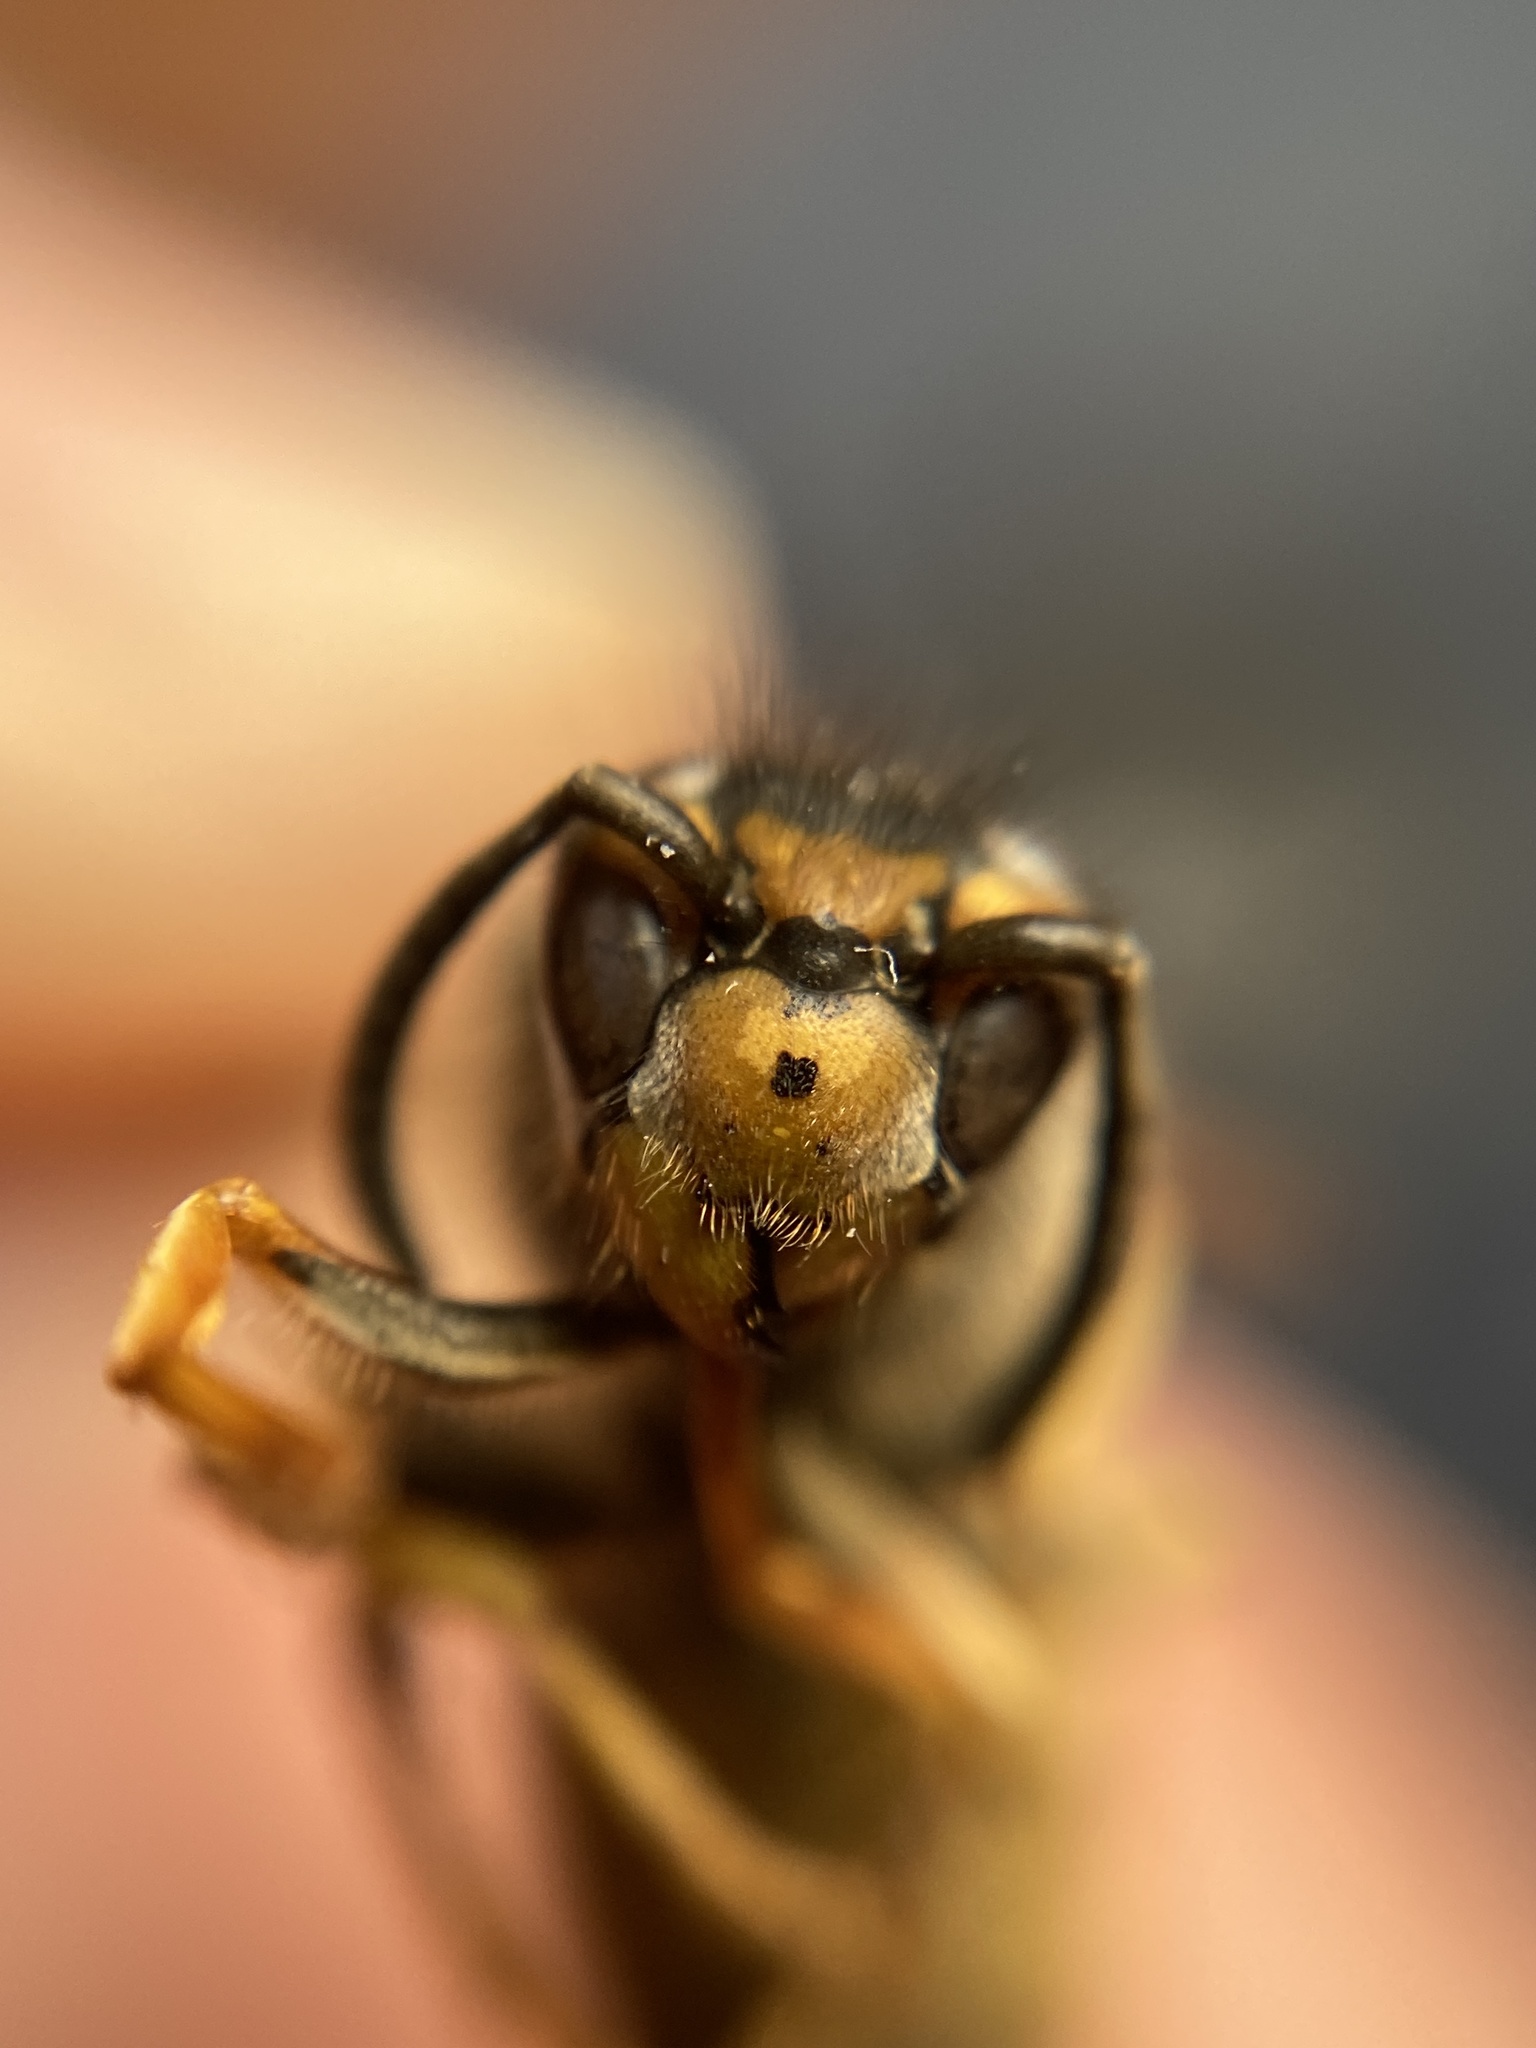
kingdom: Animalia
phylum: Arthropoda
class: Insecta
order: Hymenoptera
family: Vespidae
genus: Vespula
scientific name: Vespula germanica
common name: German wasp
